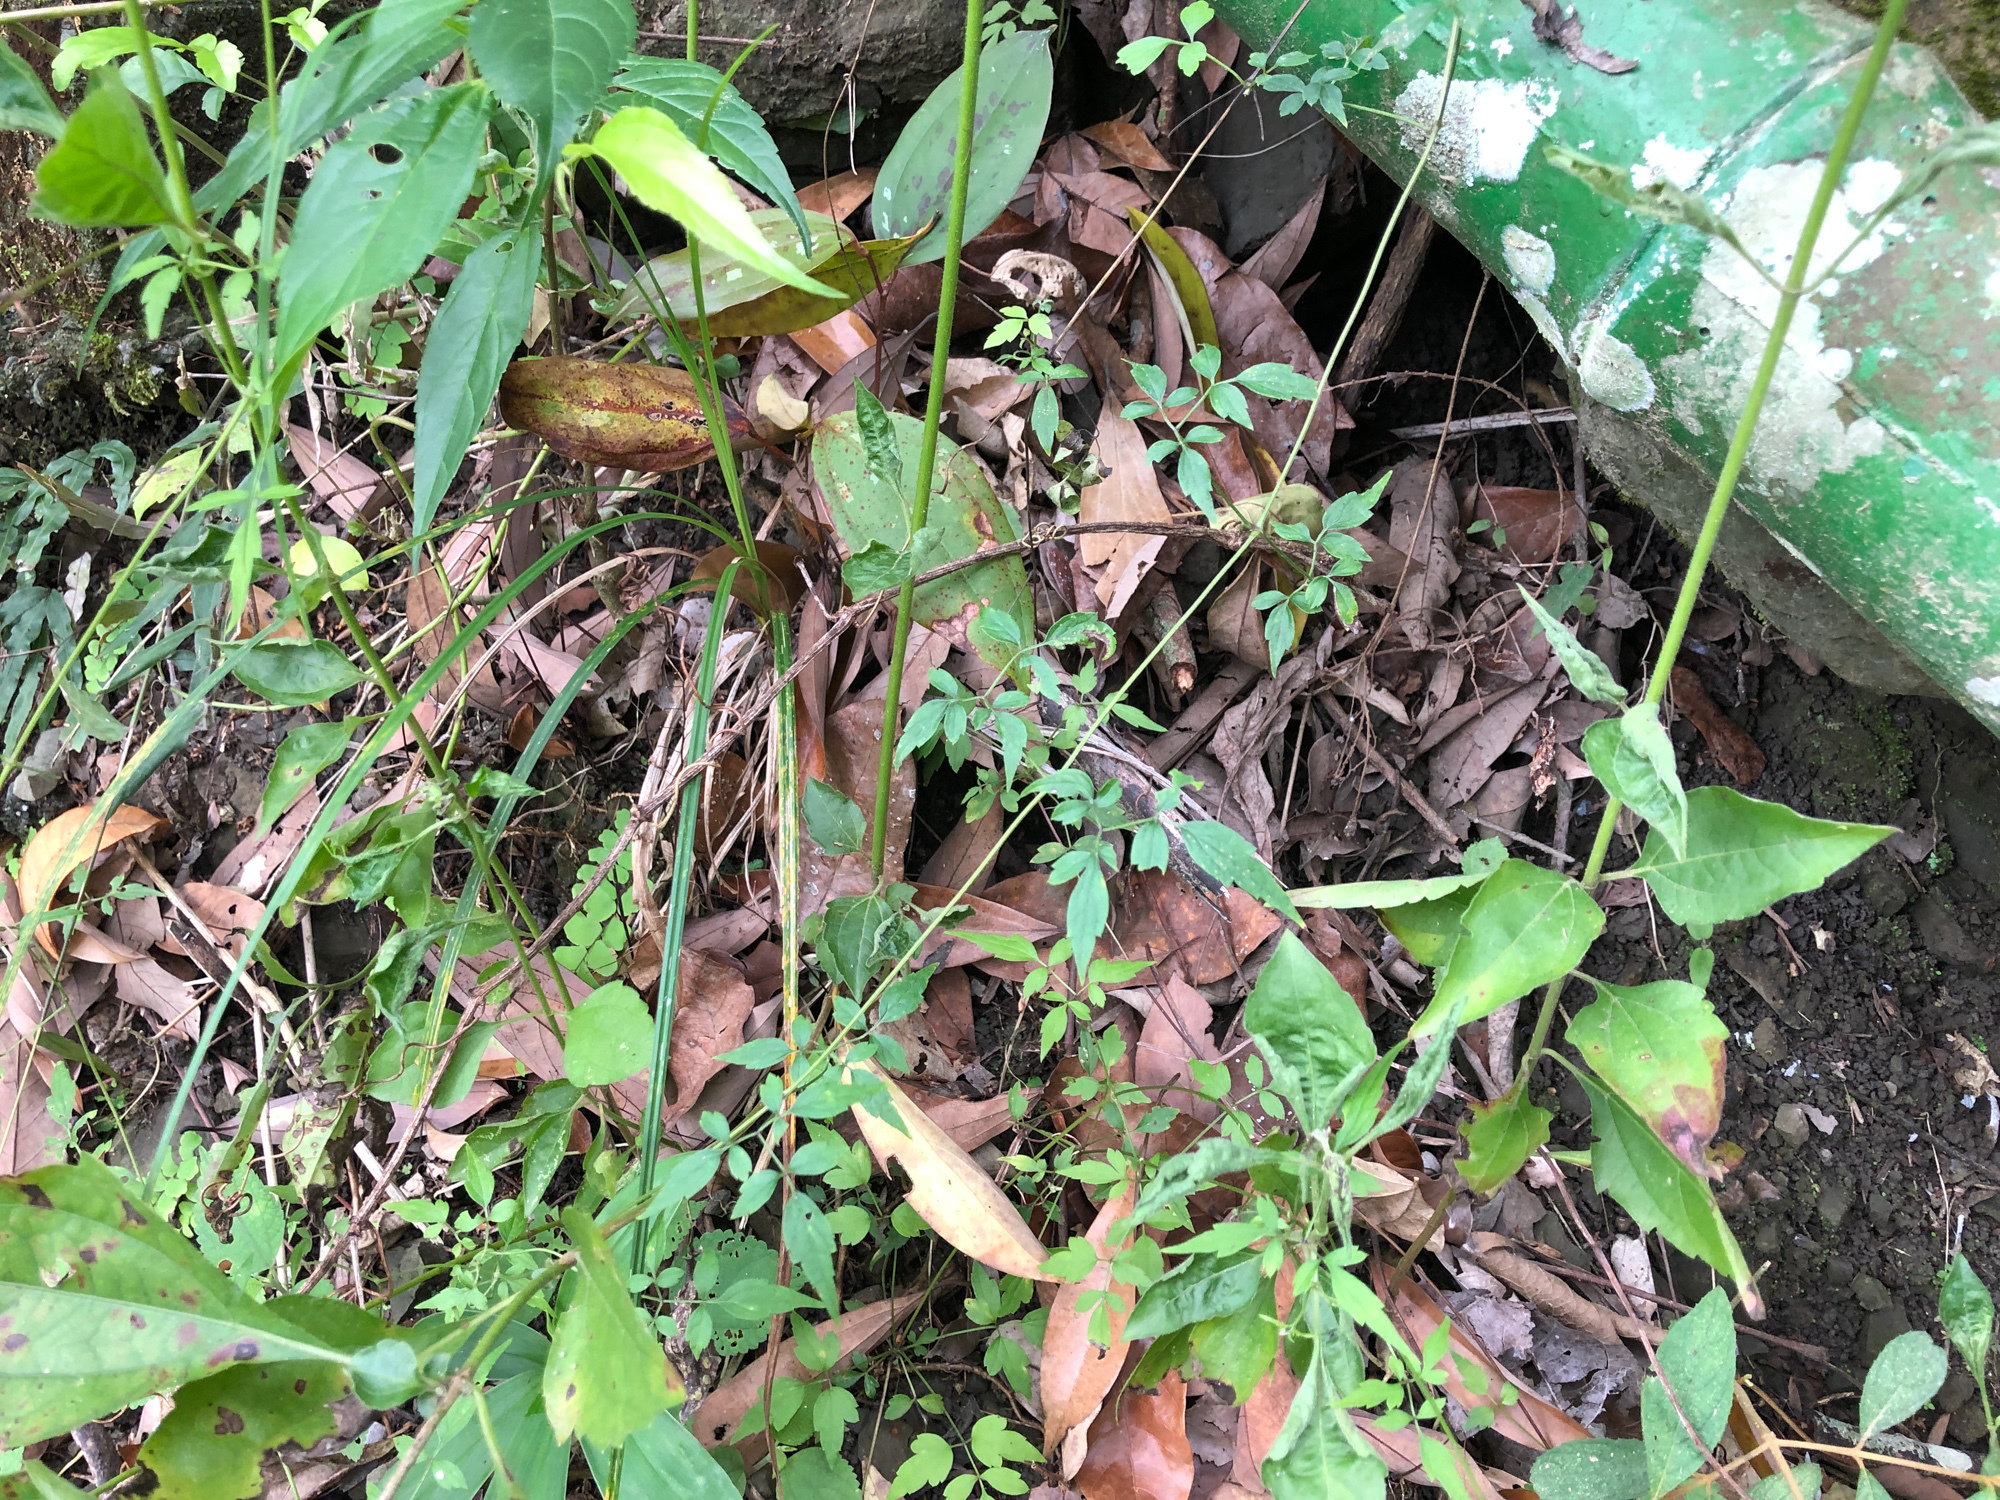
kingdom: Plantae
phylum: Tracheophyta
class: Magnoliopsida
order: Ranunculales
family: Ranunculaceae
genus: Clematis
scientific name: Clematis grata
